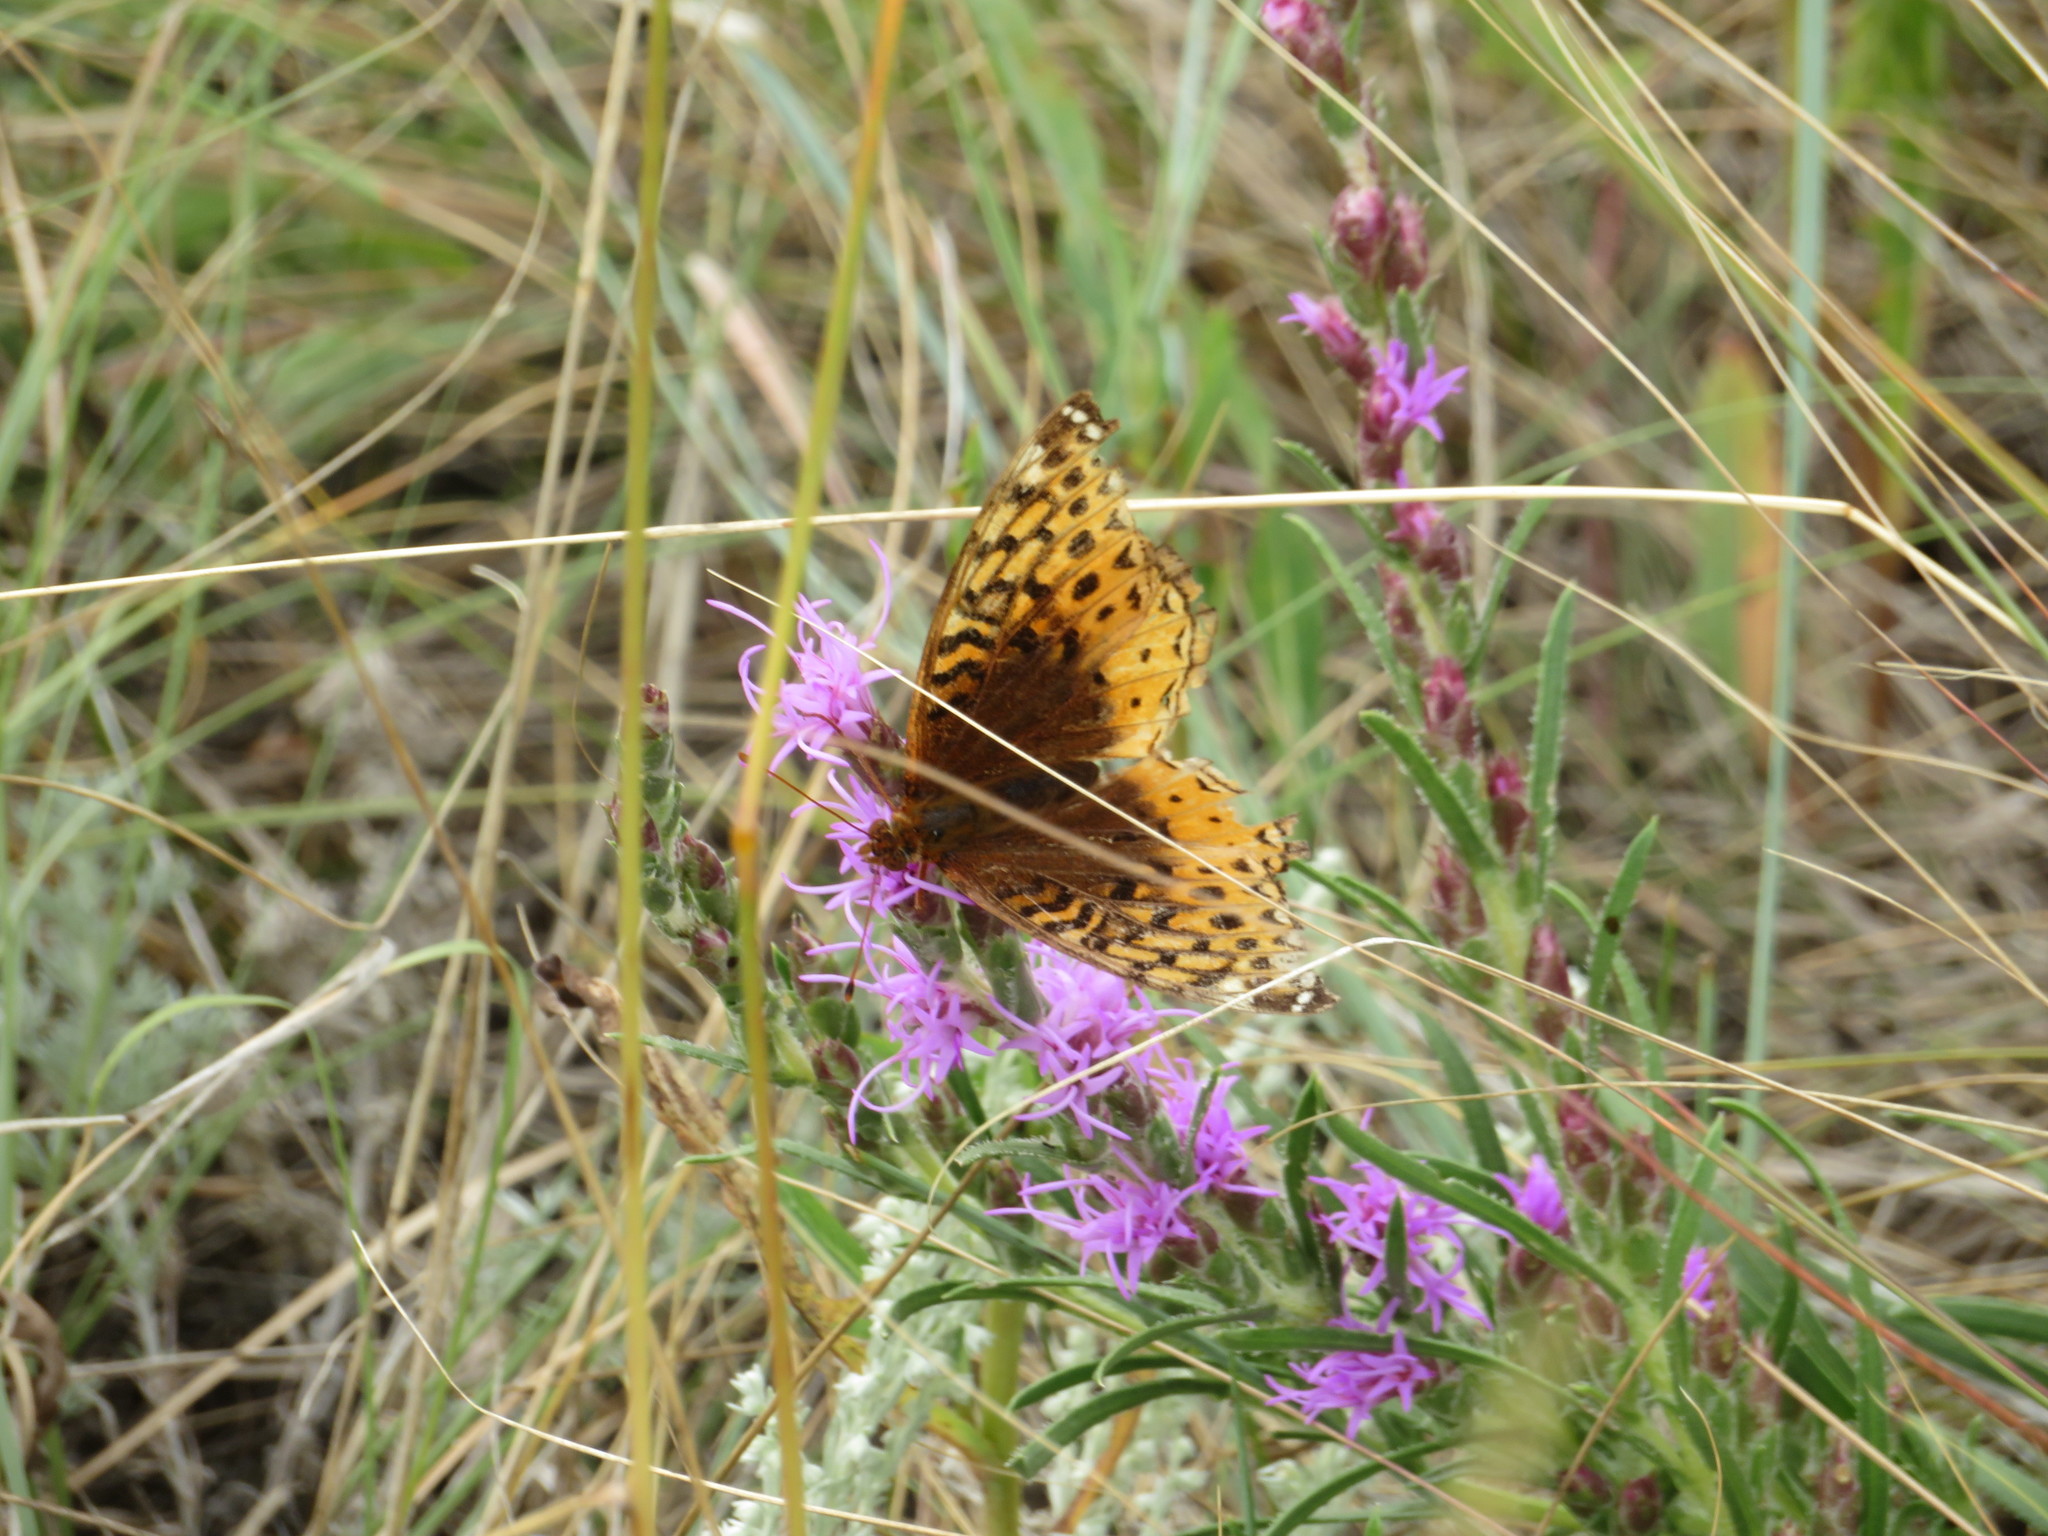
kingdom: Animalia
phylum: Arthropoda
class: Insecta
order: Lepidoptera
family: Nymphalidae
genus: Speyeria
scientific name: Speyeria cybele
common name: Great spangled fritillary
